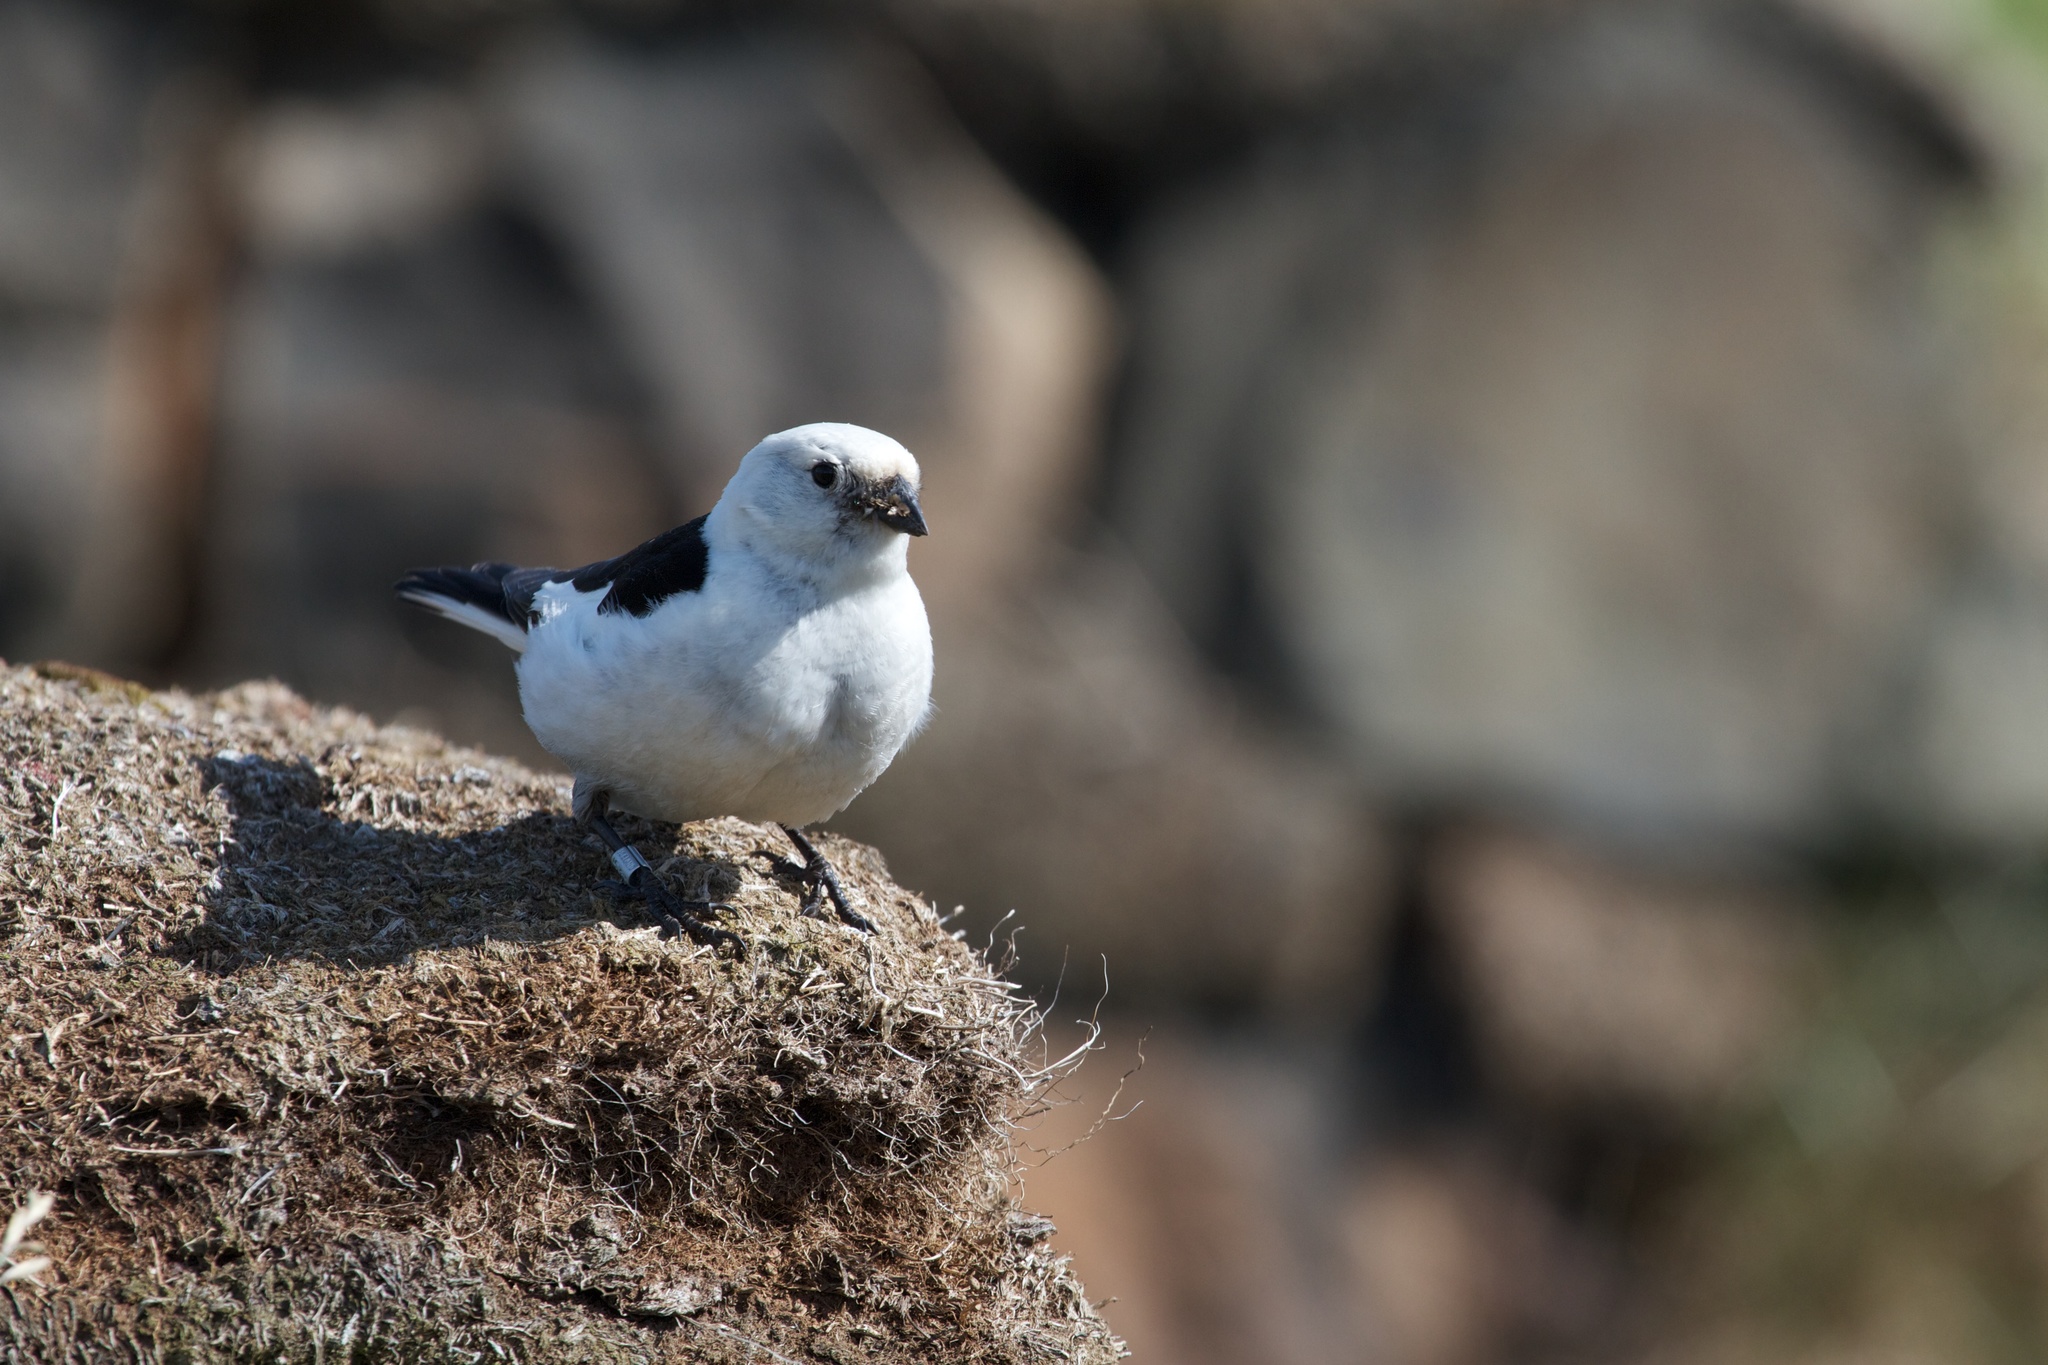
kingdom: Animalia
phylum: Chordata
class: Aves
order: Passeriformes
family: Calcariidae
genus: Plectrophenax
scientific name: Plectrophenax nivalis
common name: Snow bunting
